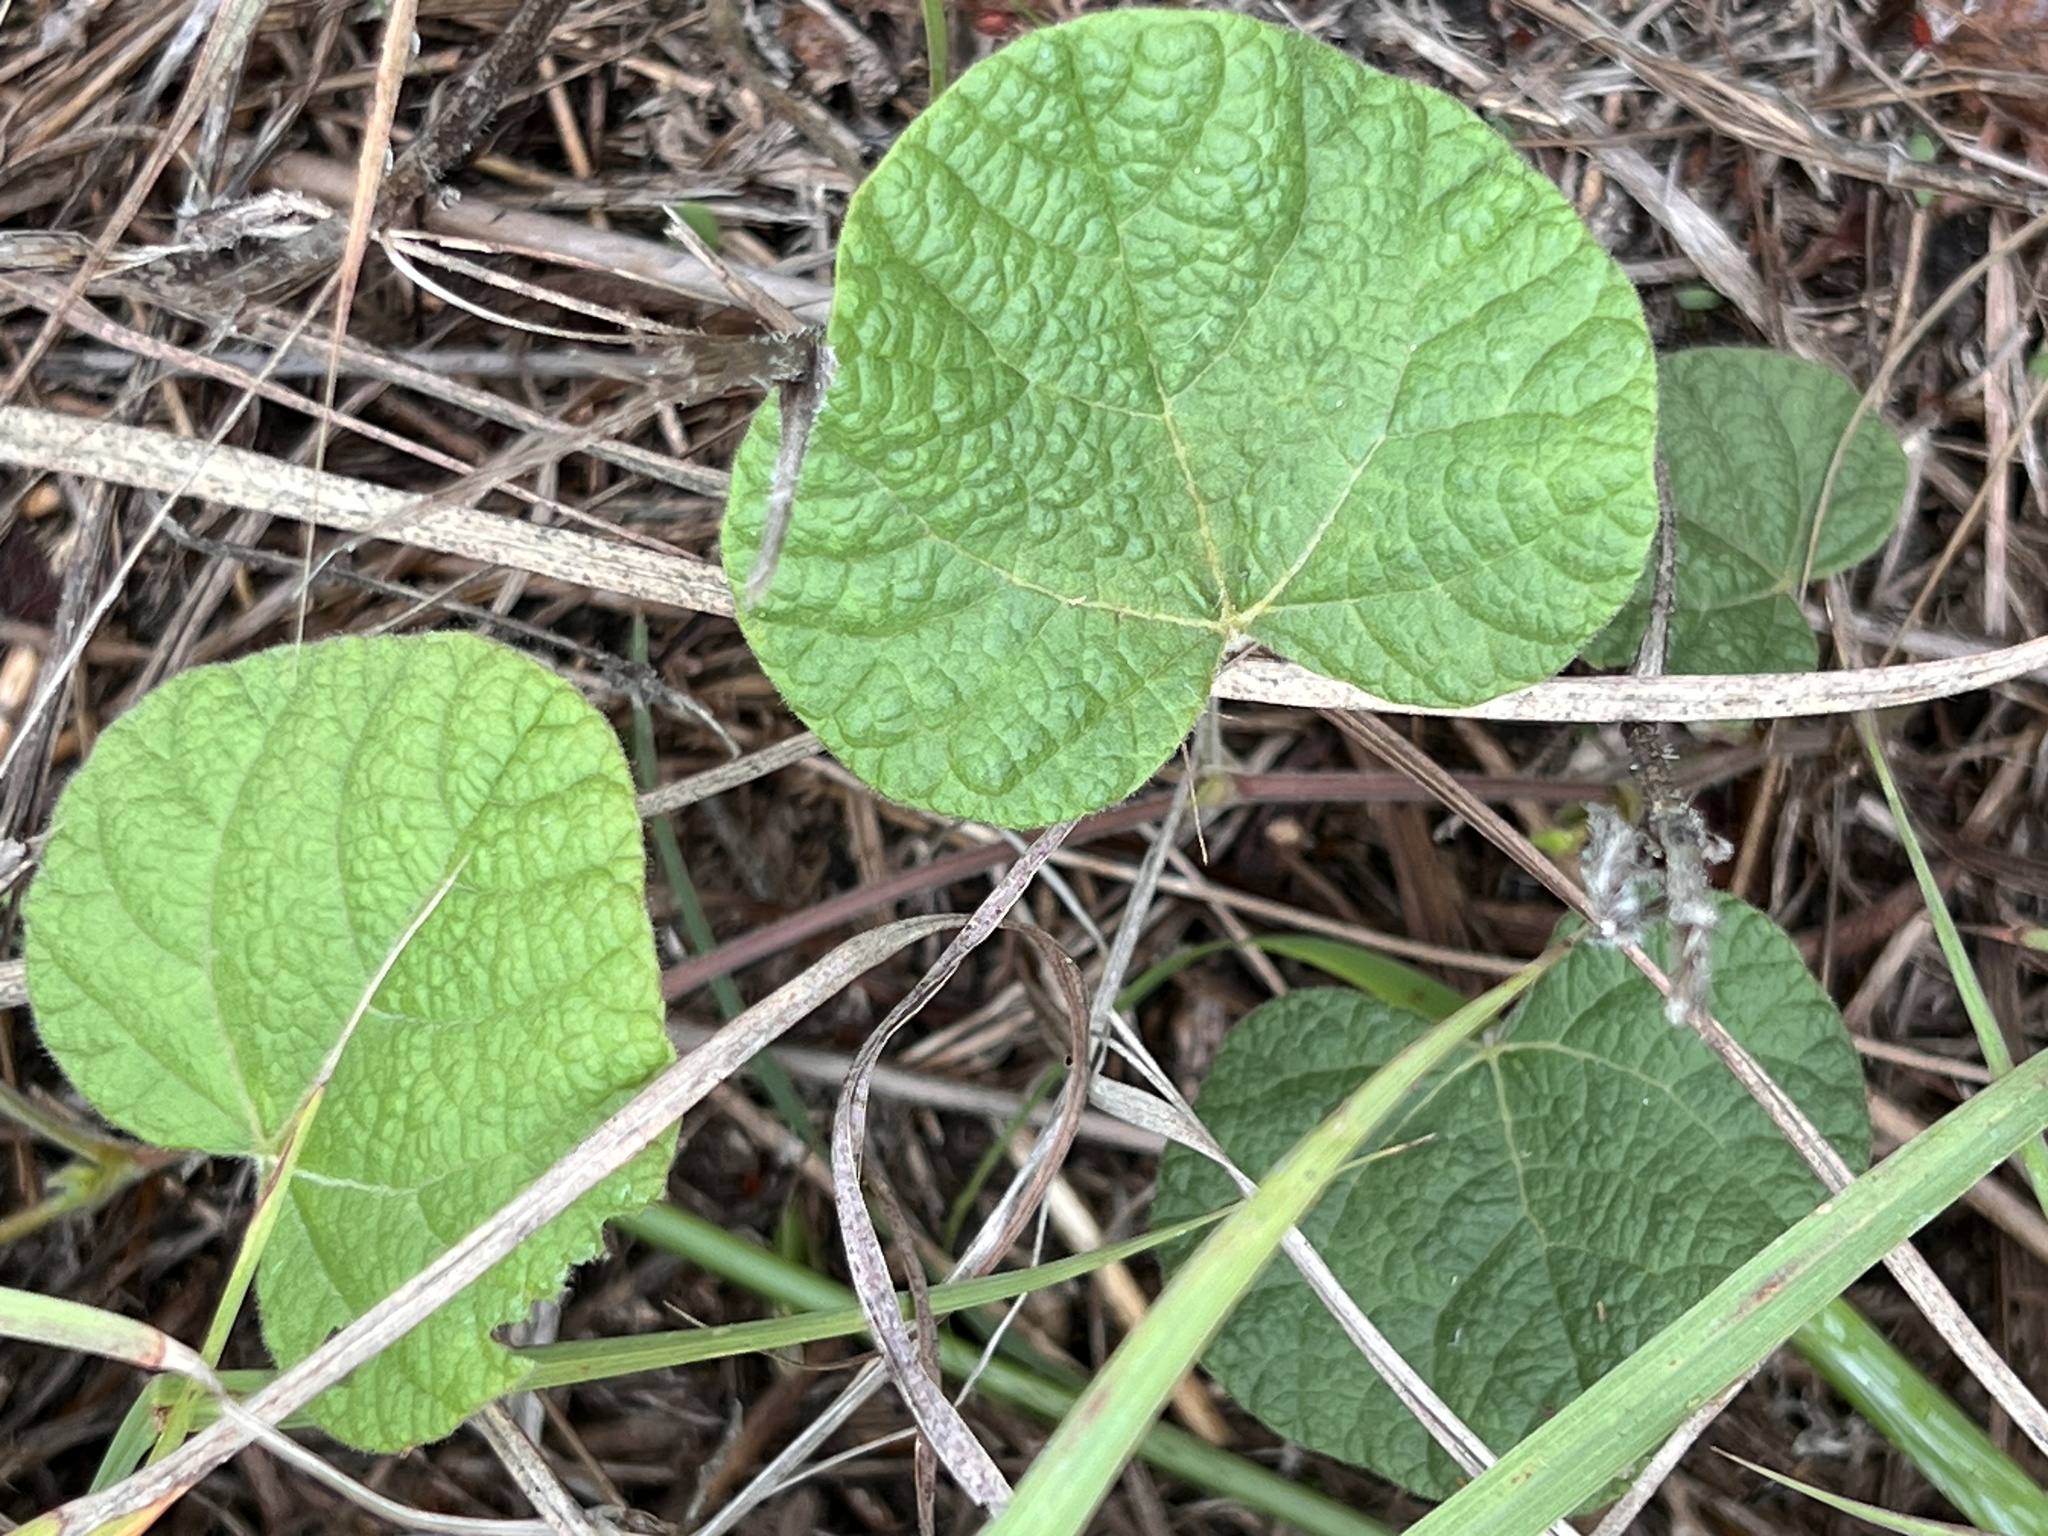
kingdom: Plantae
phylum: Tracheophyta
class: Magnoliopsida
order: Fabales
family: Fabaceae
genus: Rhynchosia
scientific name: Rhynchosia americana
